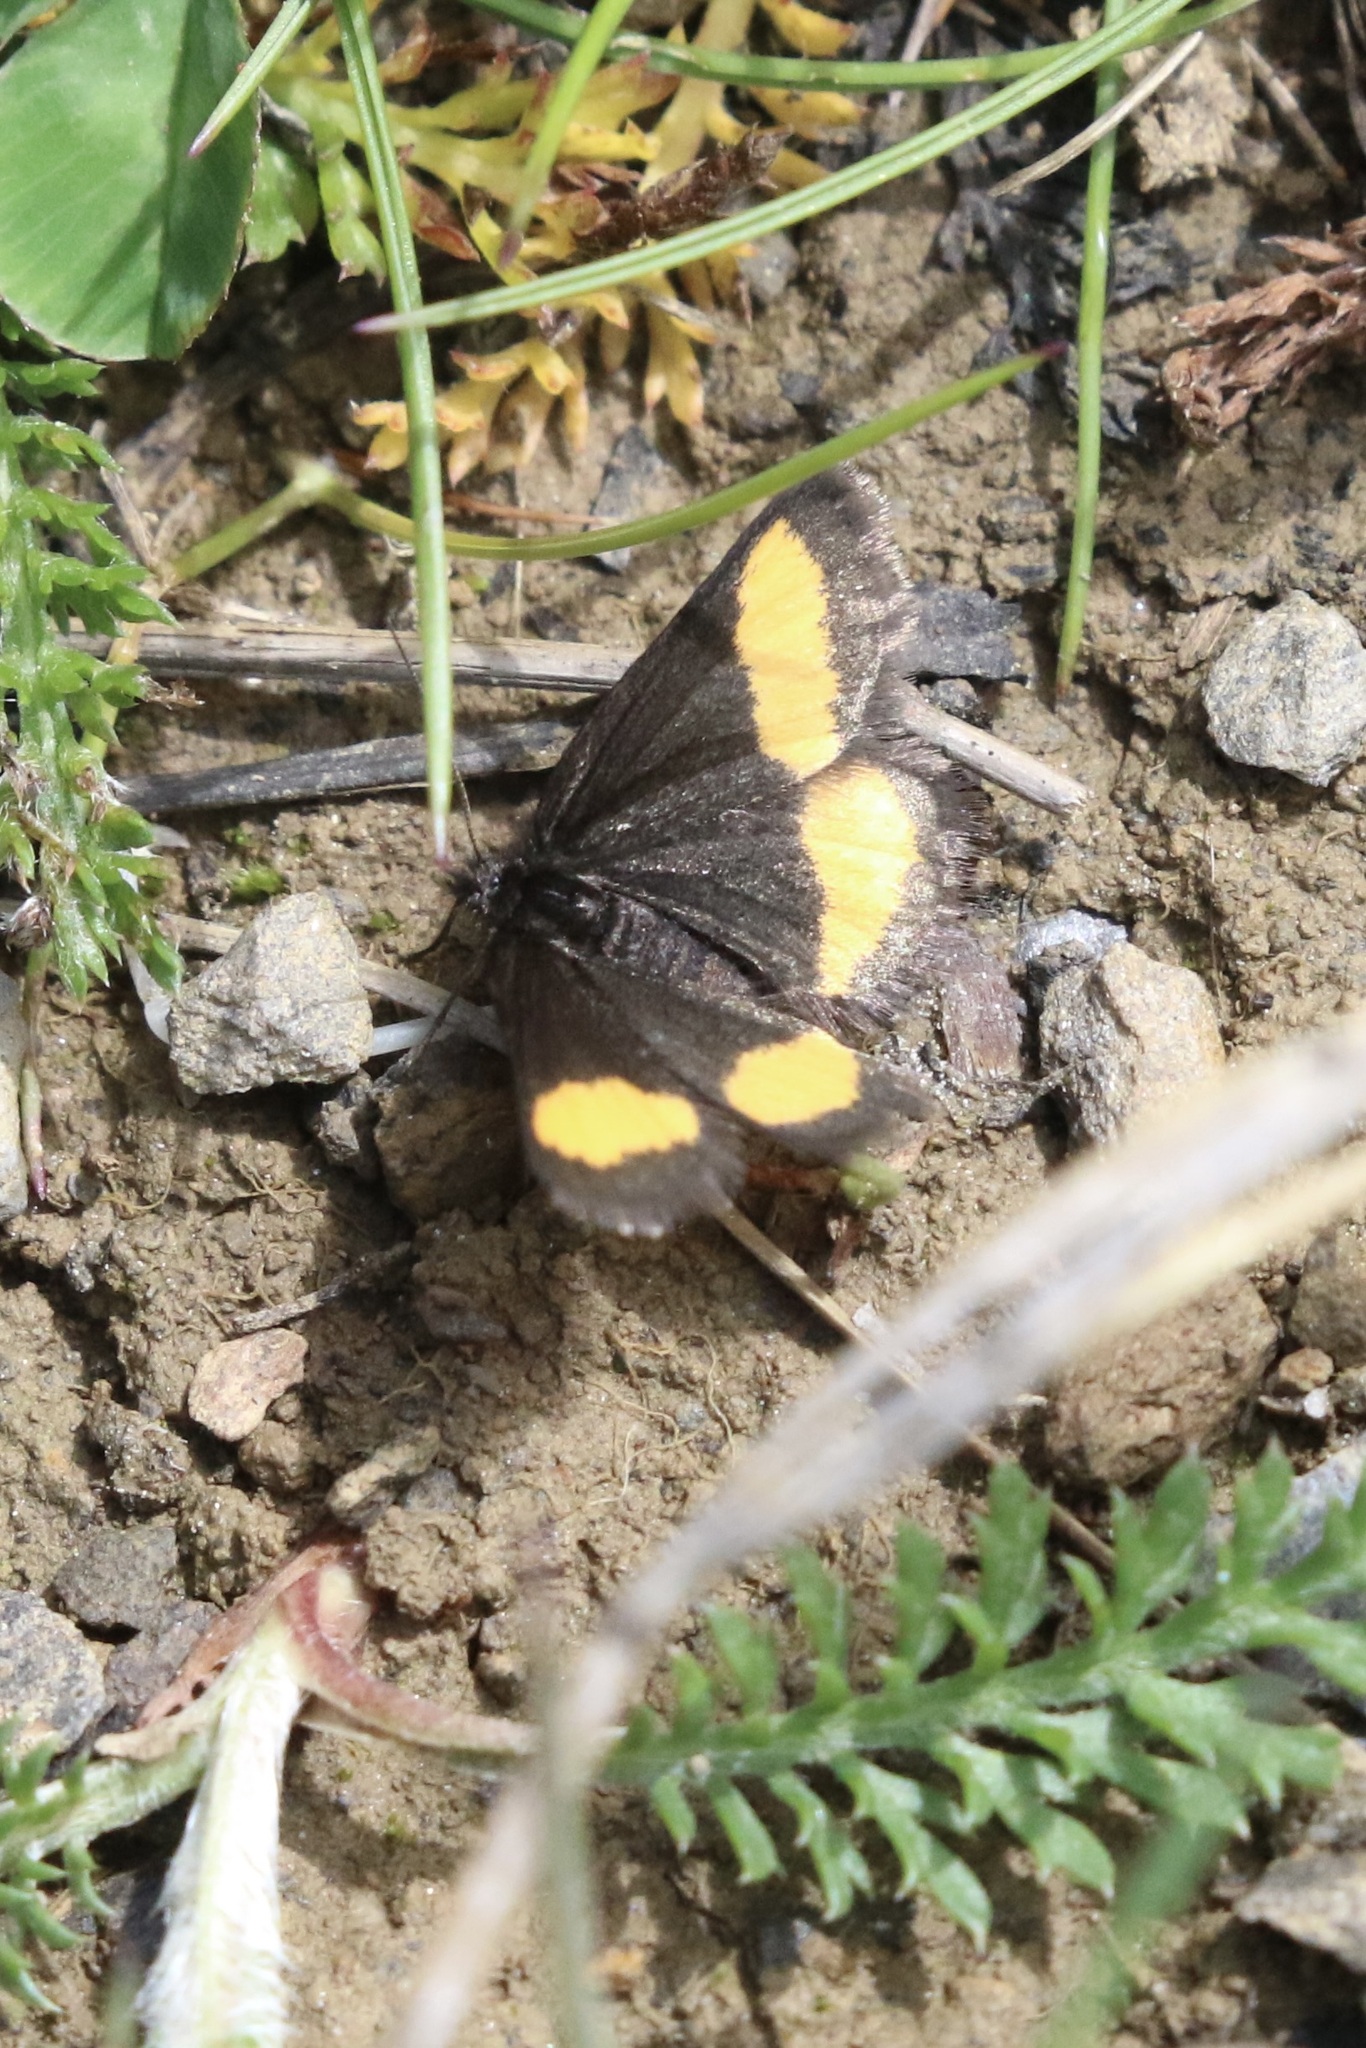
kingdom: Animalia
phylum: Arthropoda
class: Insecta
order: Lepidoptera
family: Geometridae
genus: Psodos
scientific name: Psodos quadrifaria
